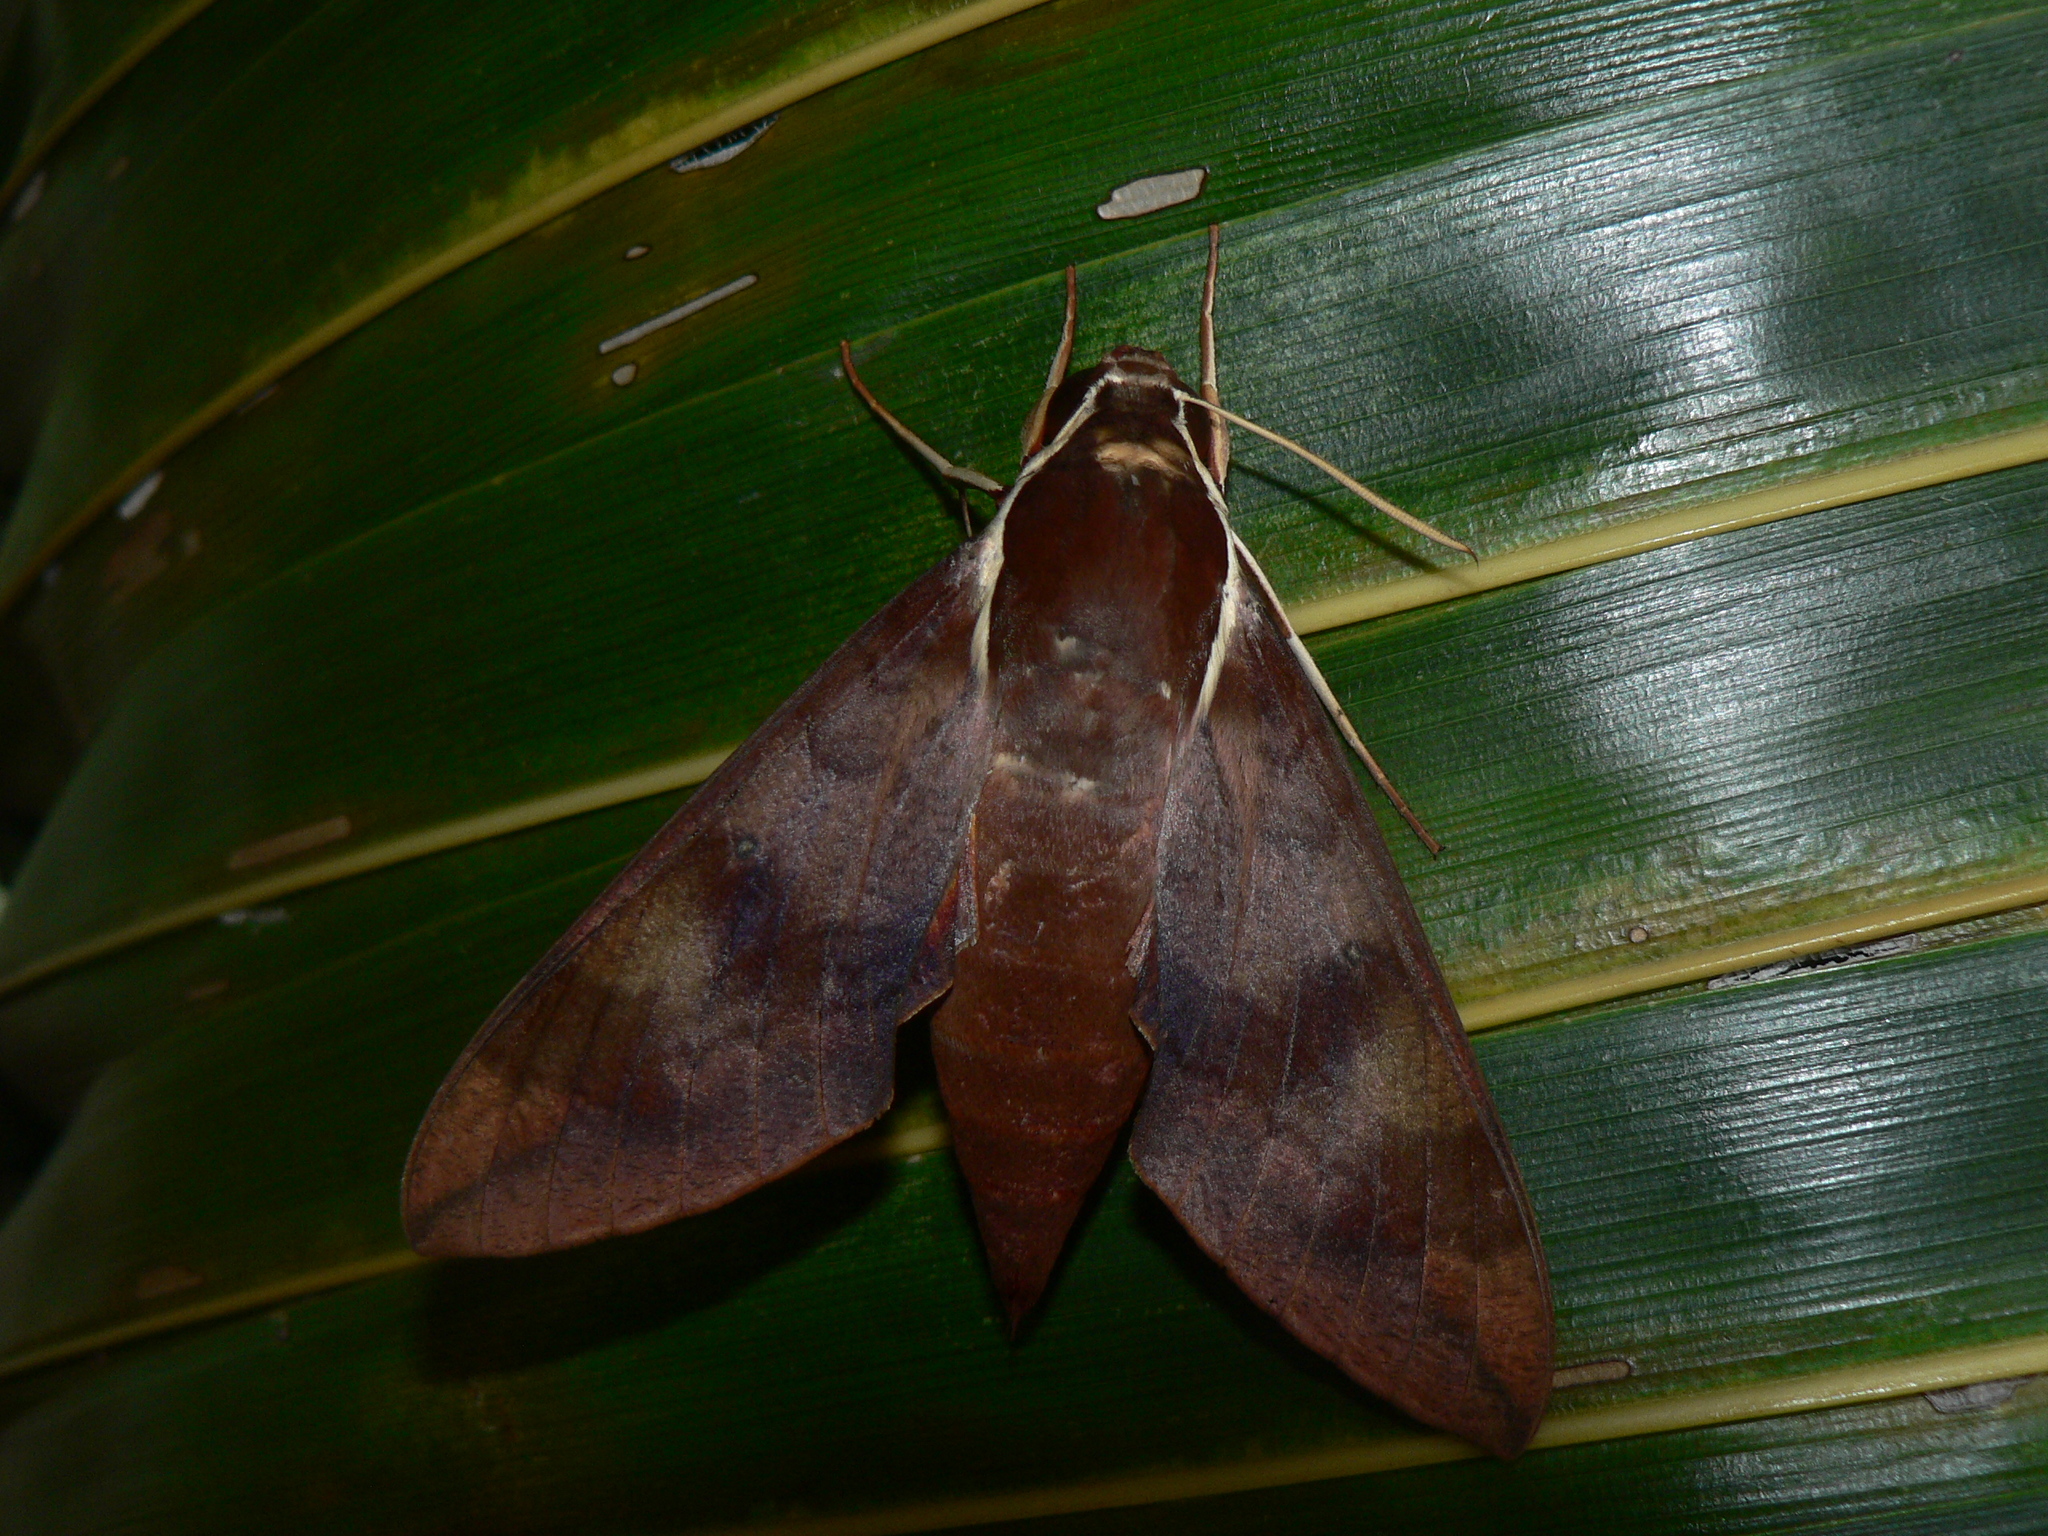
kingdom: Animalia
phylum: Arthropoda
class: Insecta
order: Lepidoptera
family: Sphingidae
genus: Gnathothlibus
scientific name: Gnathothlibus eras
